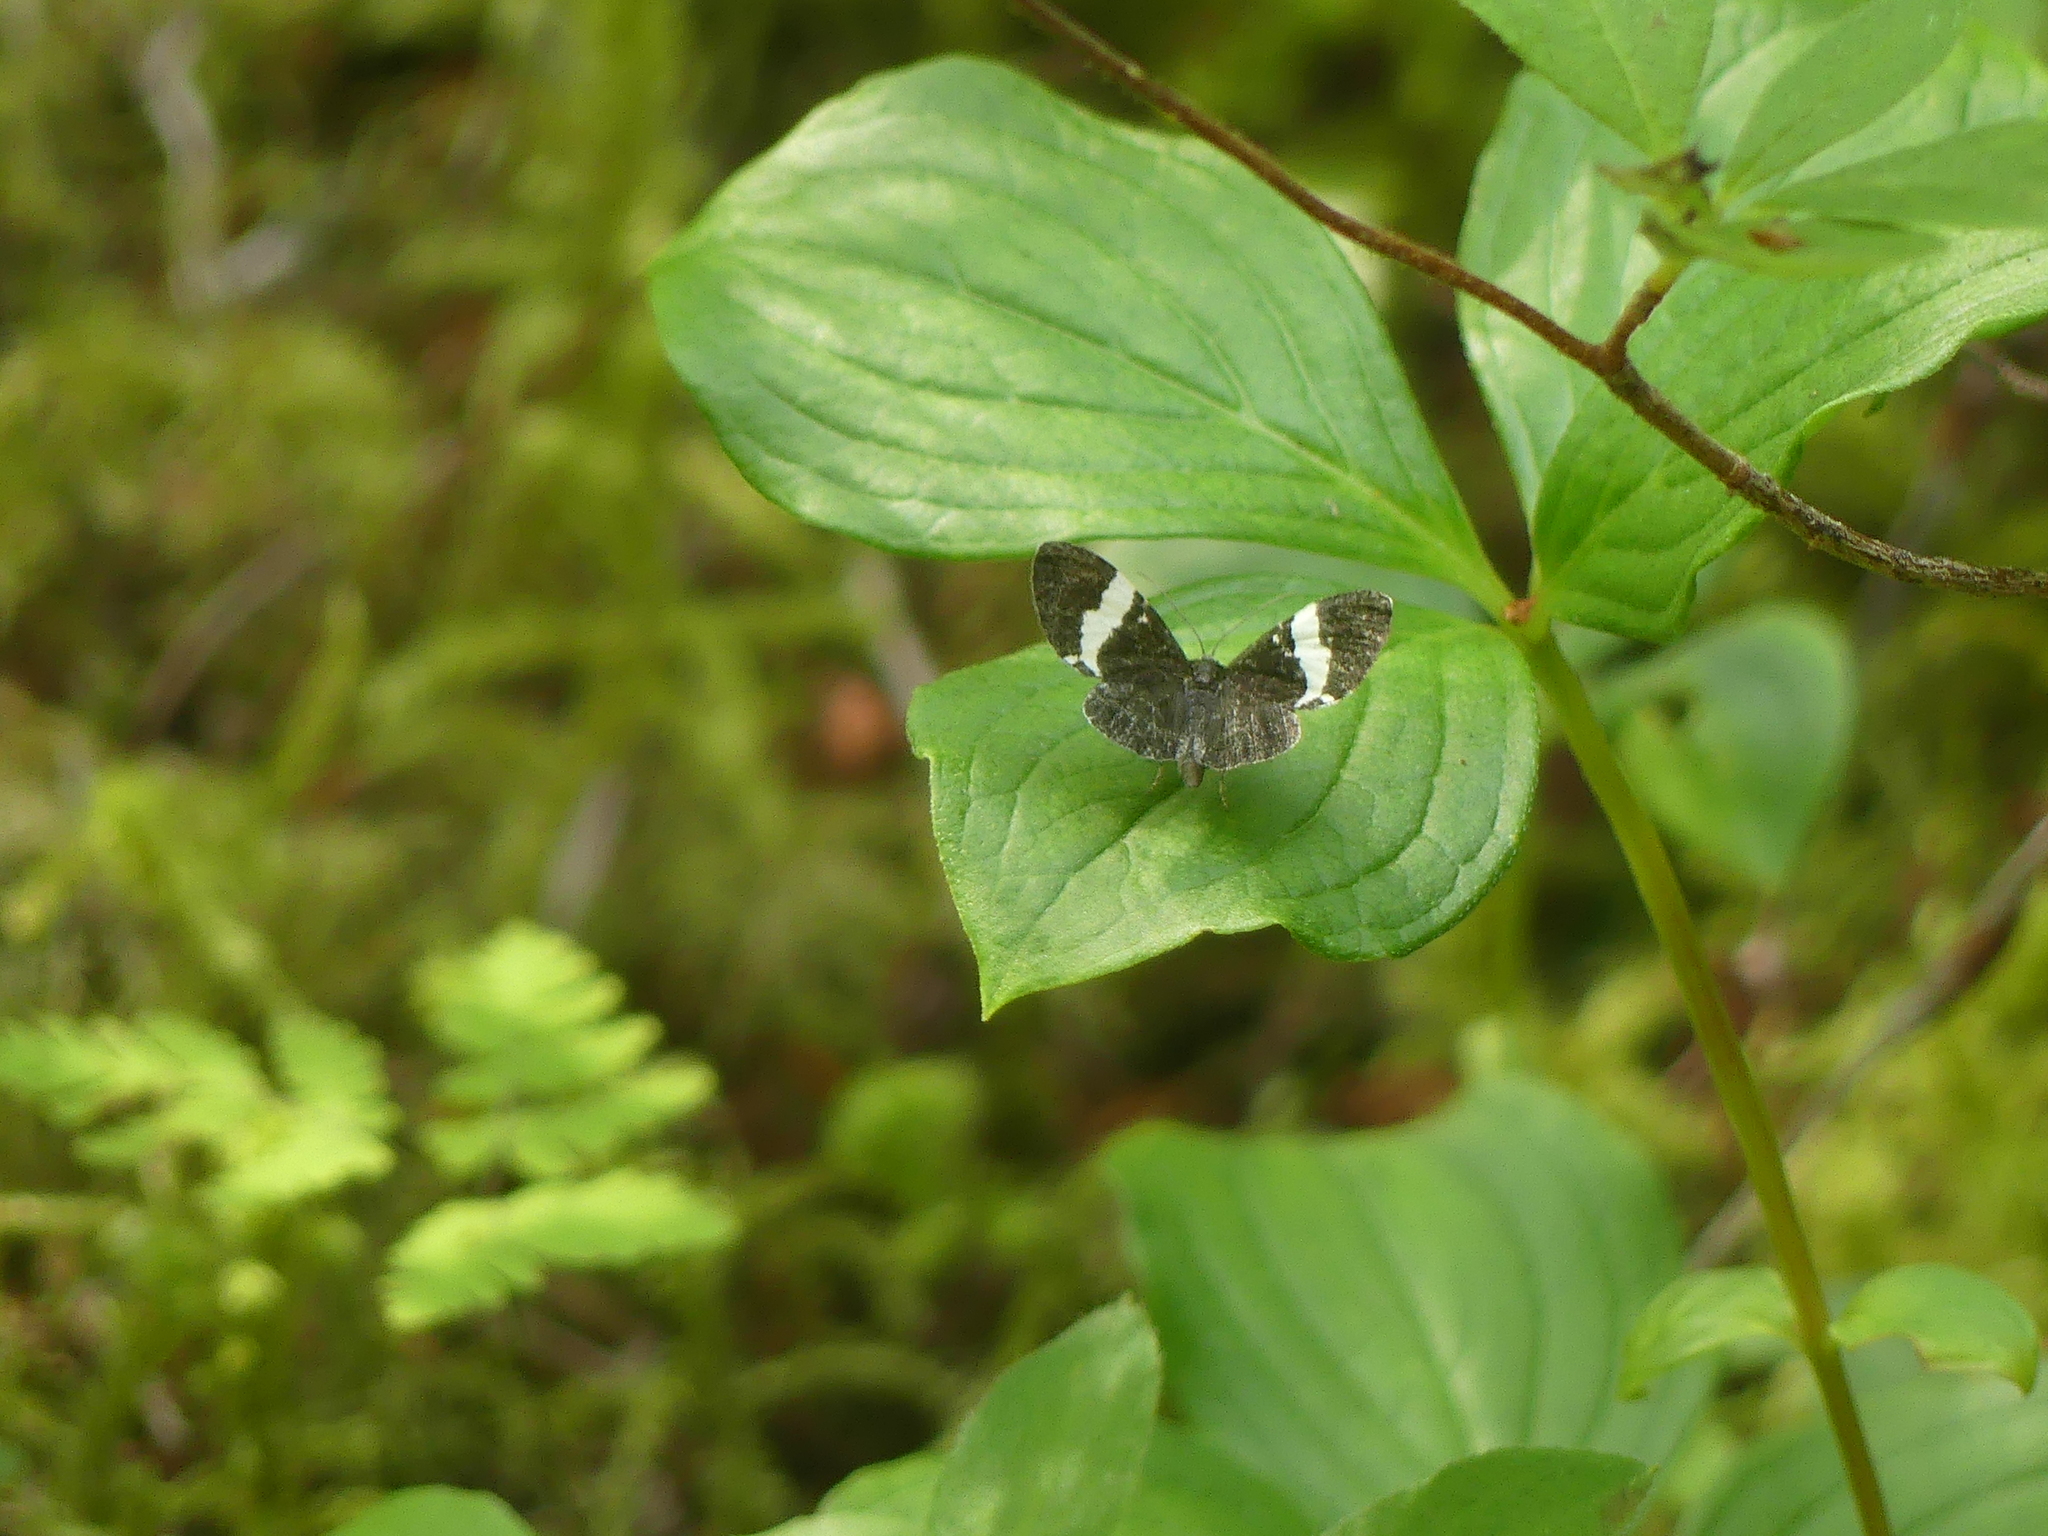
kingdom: Animalia
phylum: Arthropoda
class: Insecta
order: Lepidoptera
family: Geometridae
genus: Trichodezia
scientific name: Trichodezia albovittata
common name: White striped black
